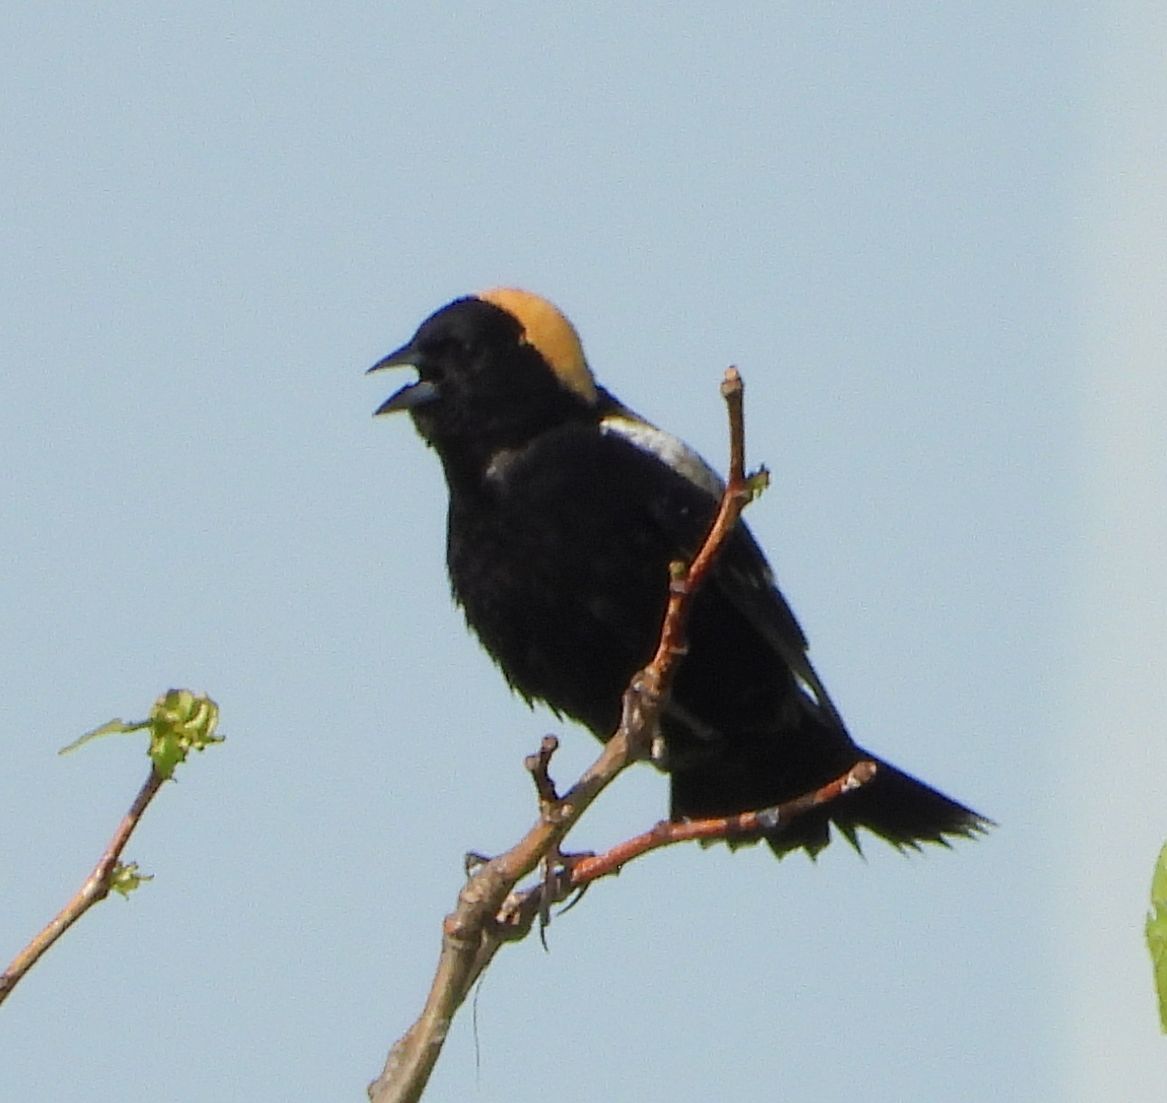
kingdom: Animalia
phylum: Chordata
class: Aves
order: Passeriformes
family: Icteridae
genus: Dolichonyx
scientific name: Dolichonyx oryzivorus
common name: Bobolink
